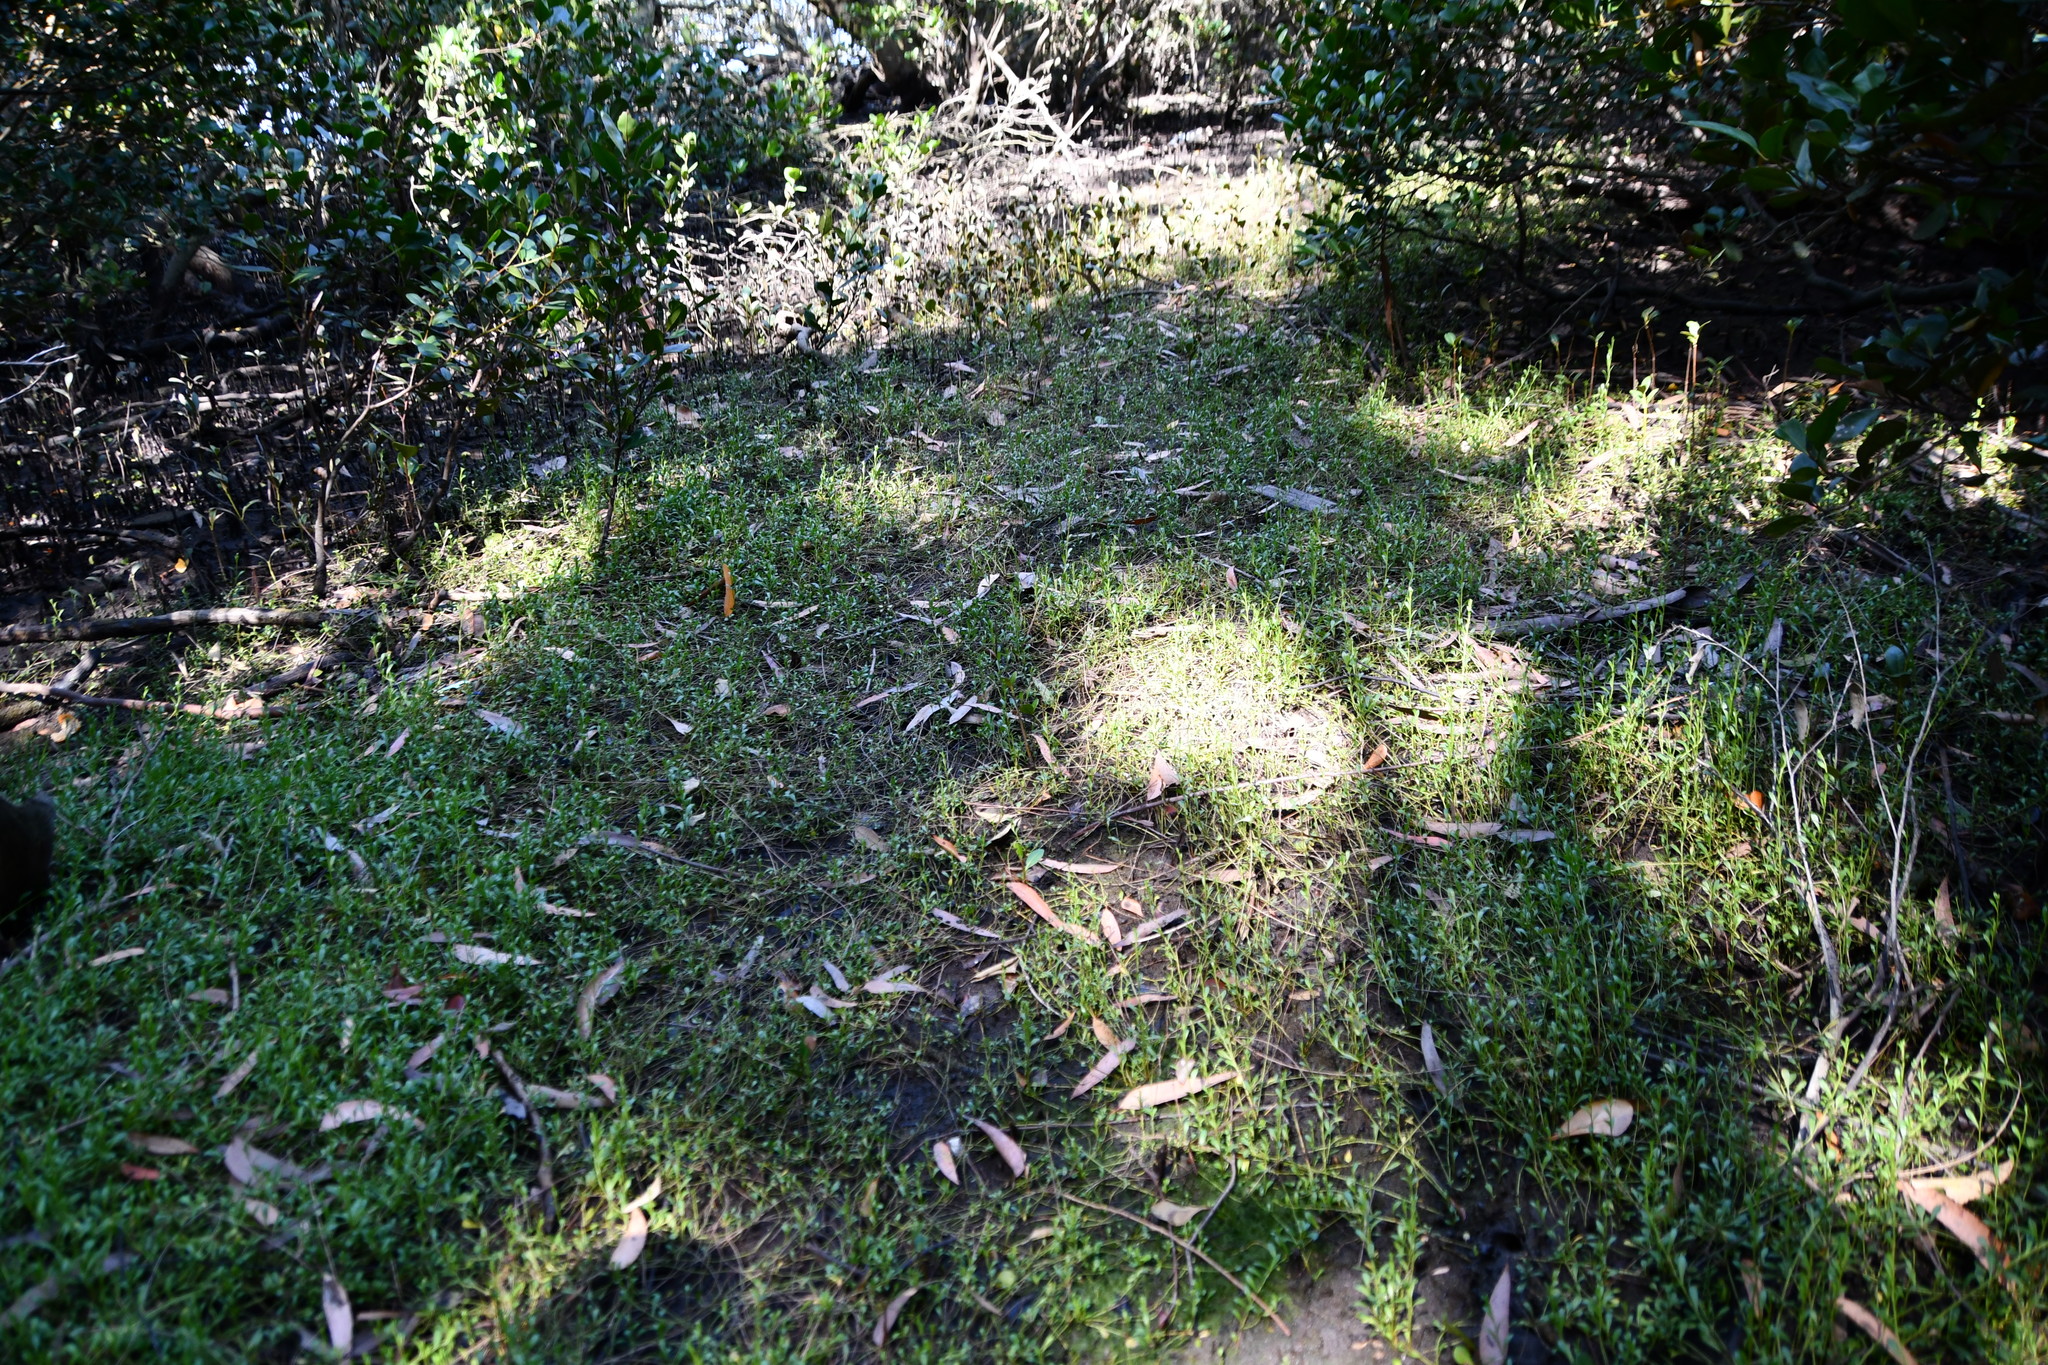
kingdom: Plantae
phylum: Tracheophyta
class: Magnoliopsida
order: Ericales
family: Primulaceae
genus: Samolus
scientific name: Samolus repens
